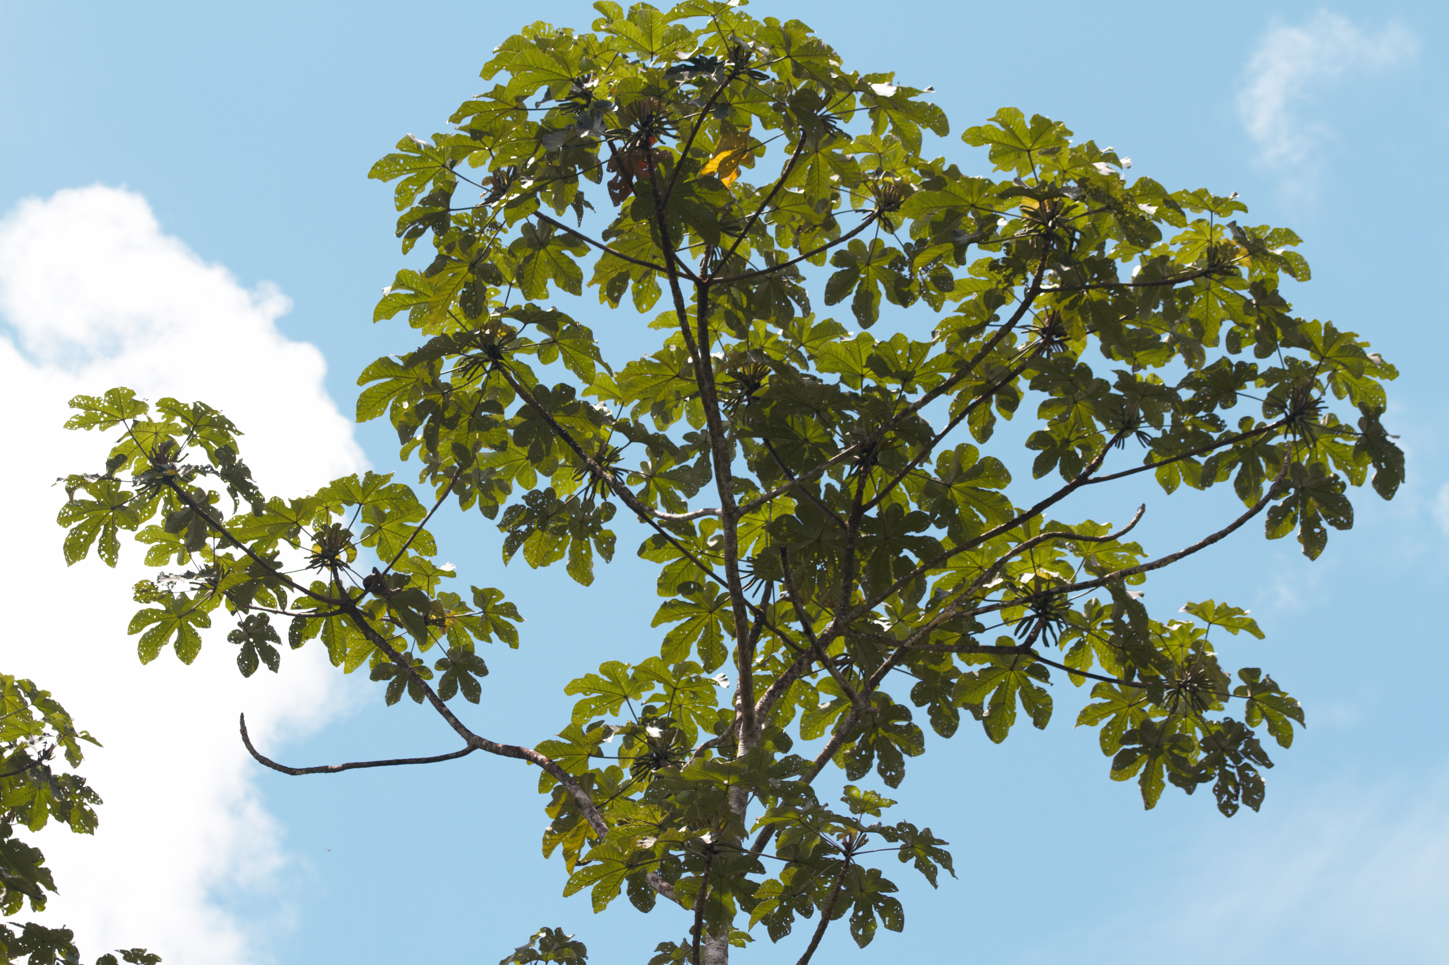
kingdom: Plantae
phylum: Tracheophyta
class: Magnoliopsida
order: Rosales
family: Urticaceae
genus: Cecropia
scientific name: Cecropia obtusa
